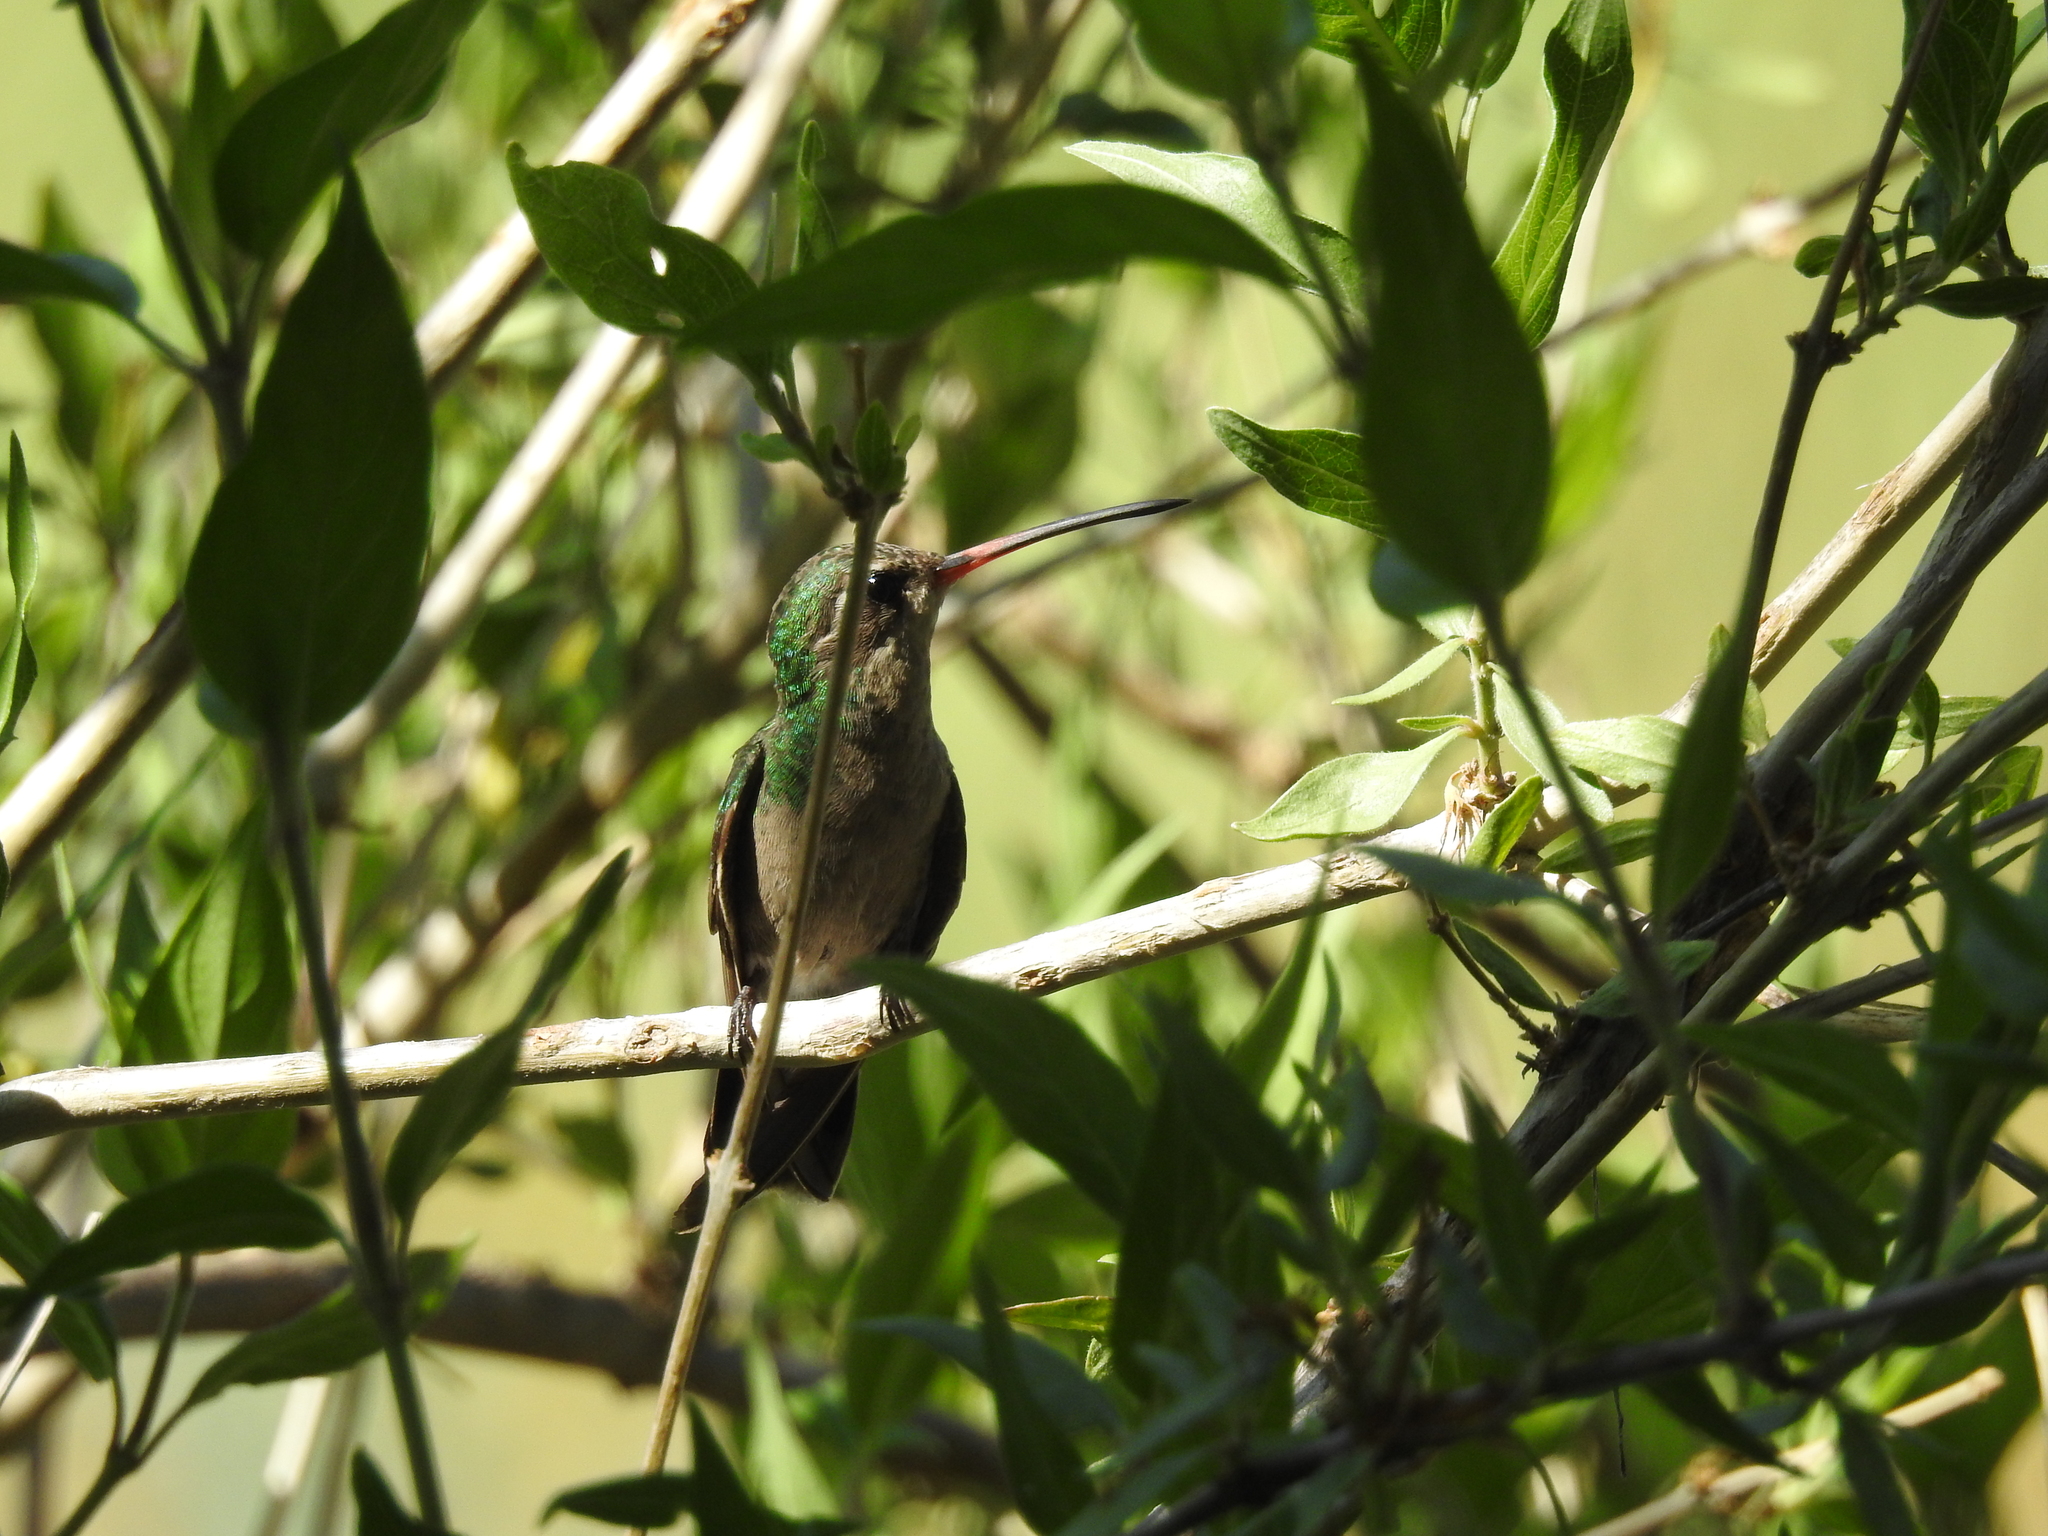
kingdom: Animalia
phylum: Chordata
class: Aves
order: Apodiformes
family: Trochilidae
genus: Cynanthus
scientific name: Cynanthus latirostris
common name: Broad-billed hummingbird
